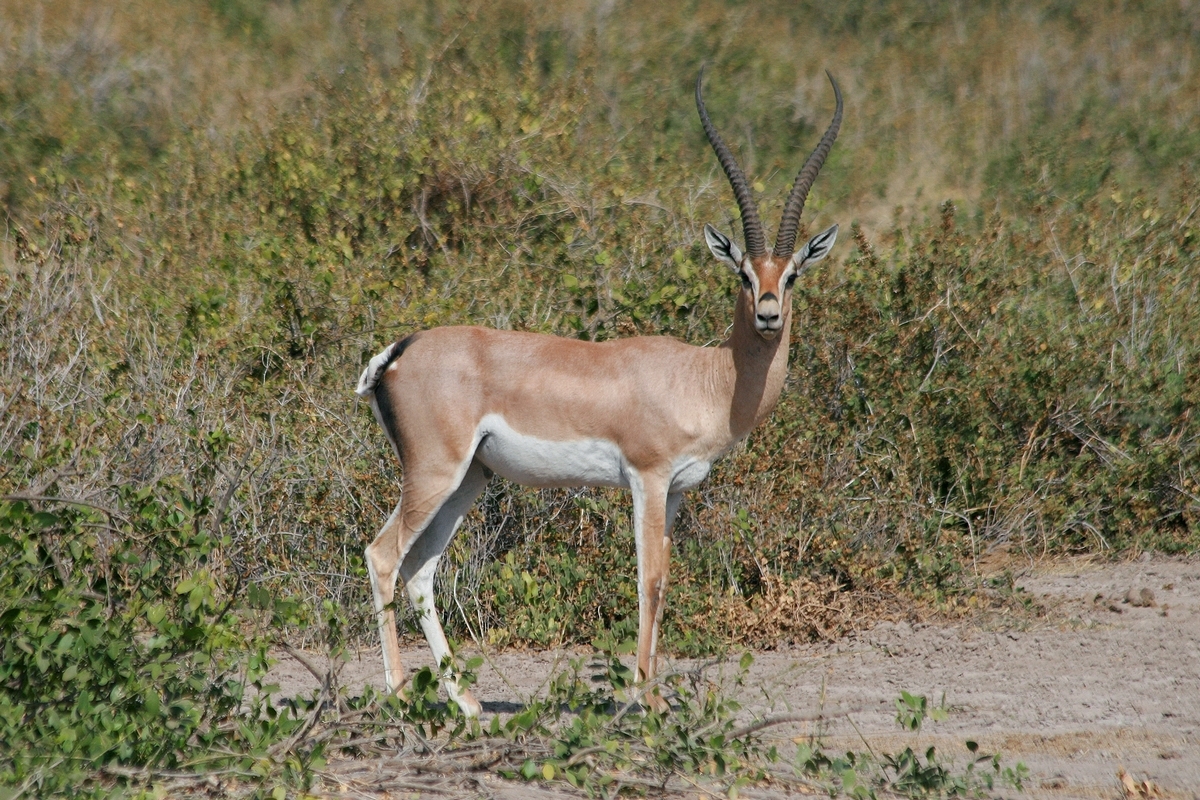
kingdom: Animalia
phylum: Chordata
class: Mammalia
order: Artiodactyla
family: Bovidae
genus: Nanger
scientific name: Nanger granti
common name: Grant's gazelle
